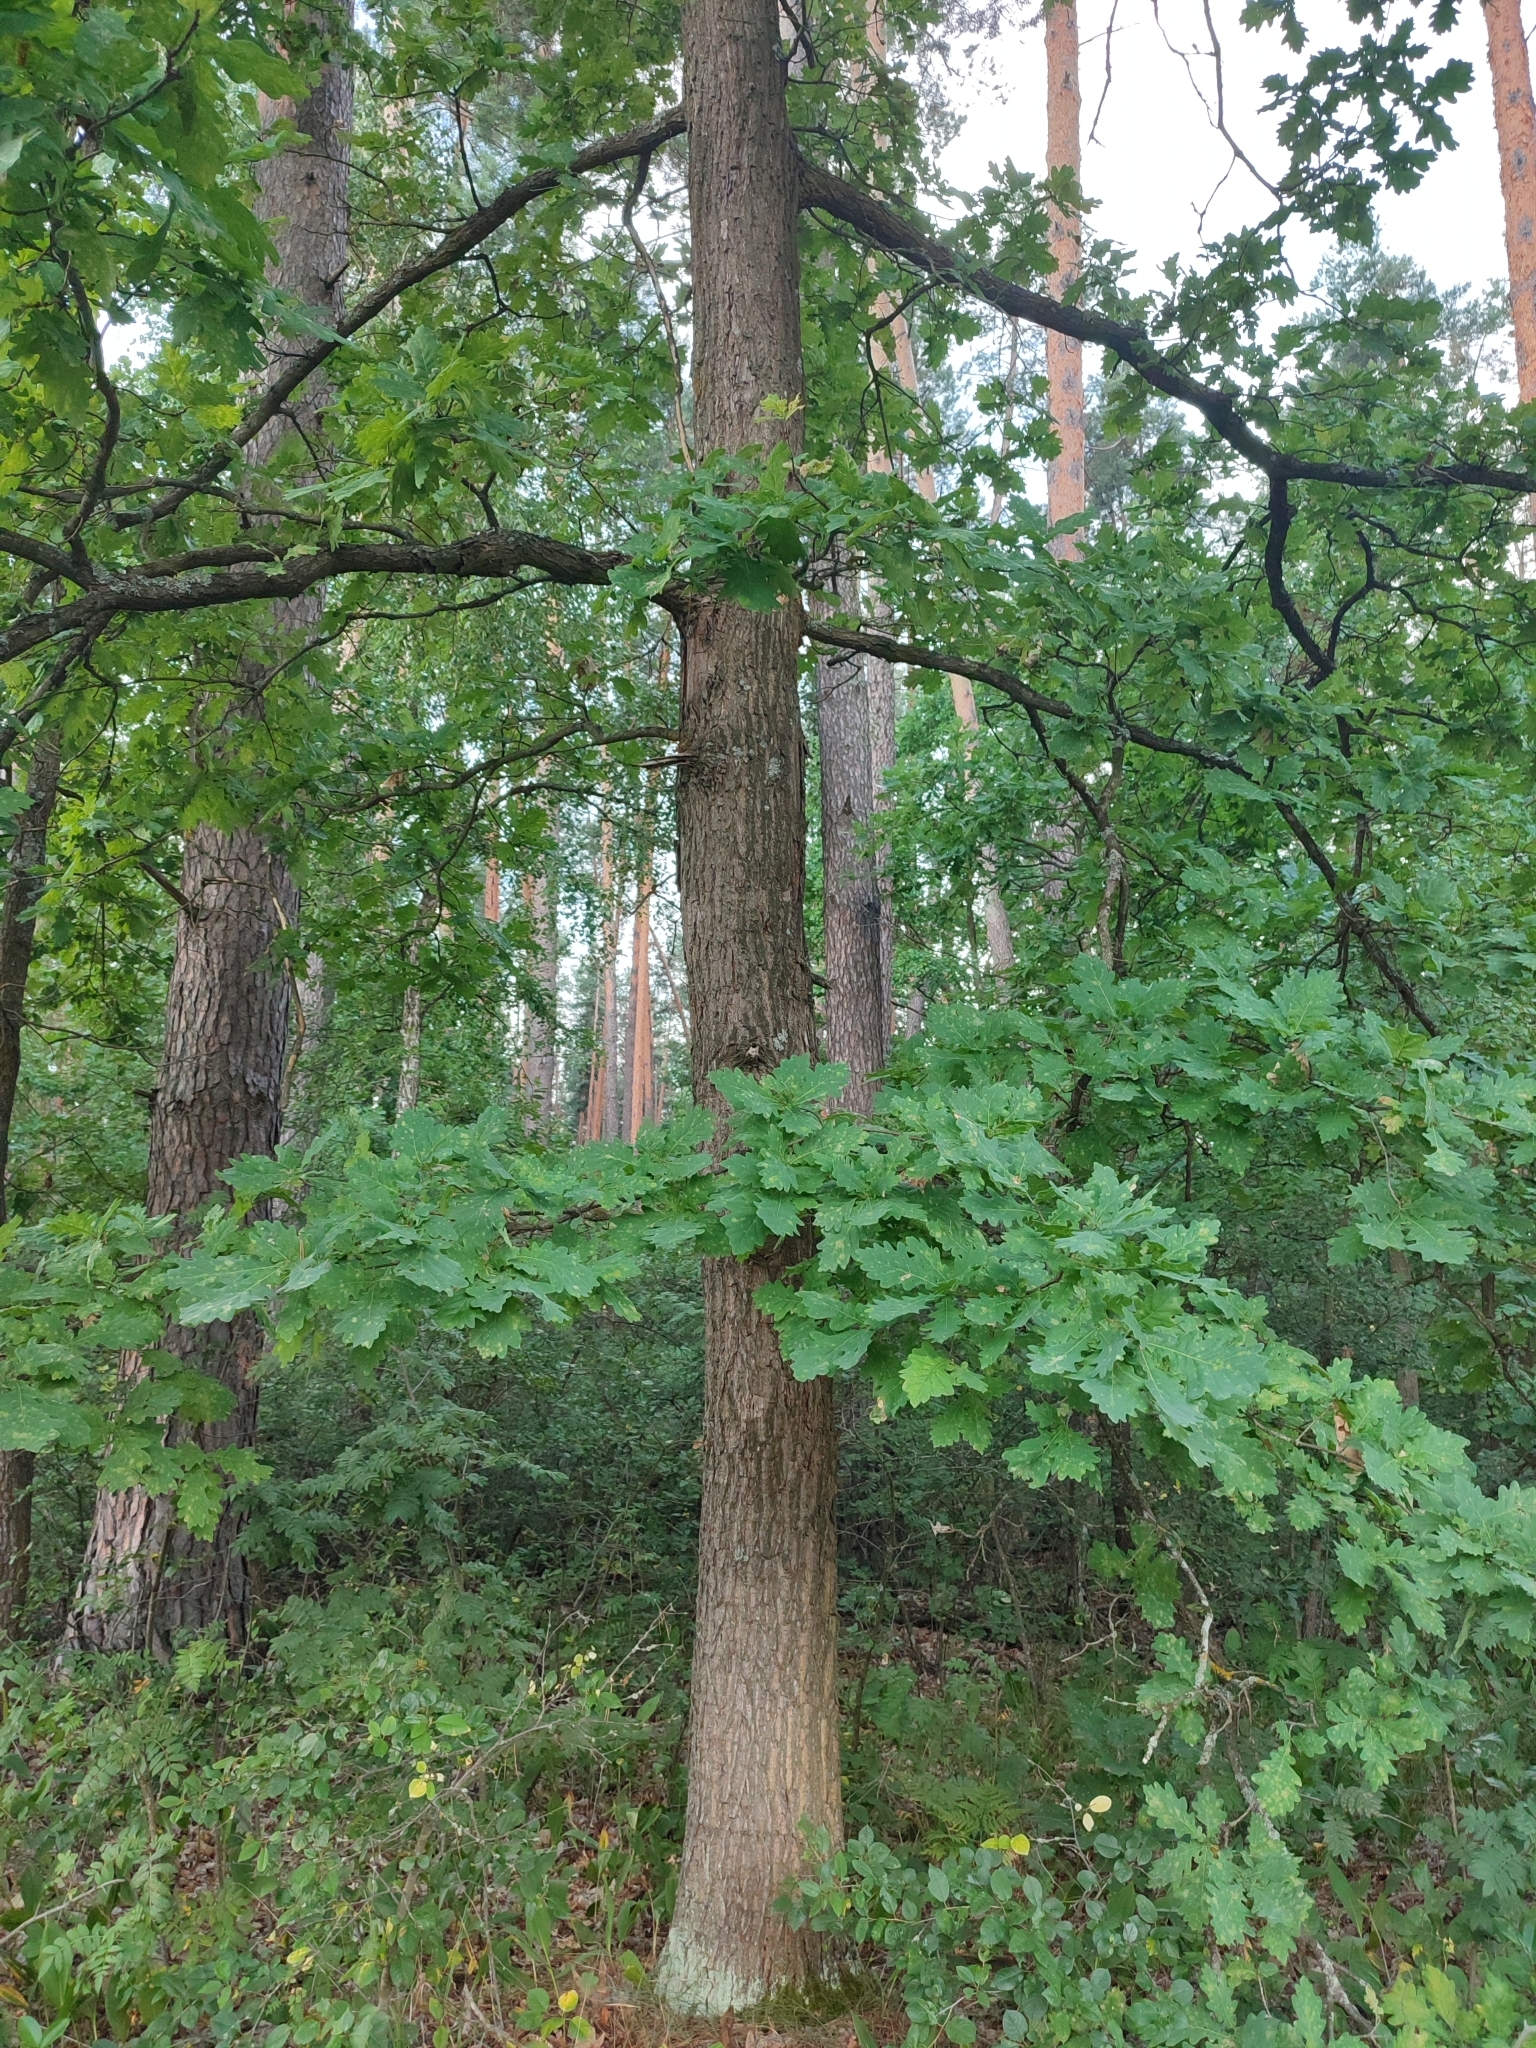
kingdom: Plantae
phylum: Tracheophyta
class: Magnoliopsida
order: Fagales
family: Fagaceae
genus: Quercus
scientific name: Quercus robur
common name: Pedunculate oak
